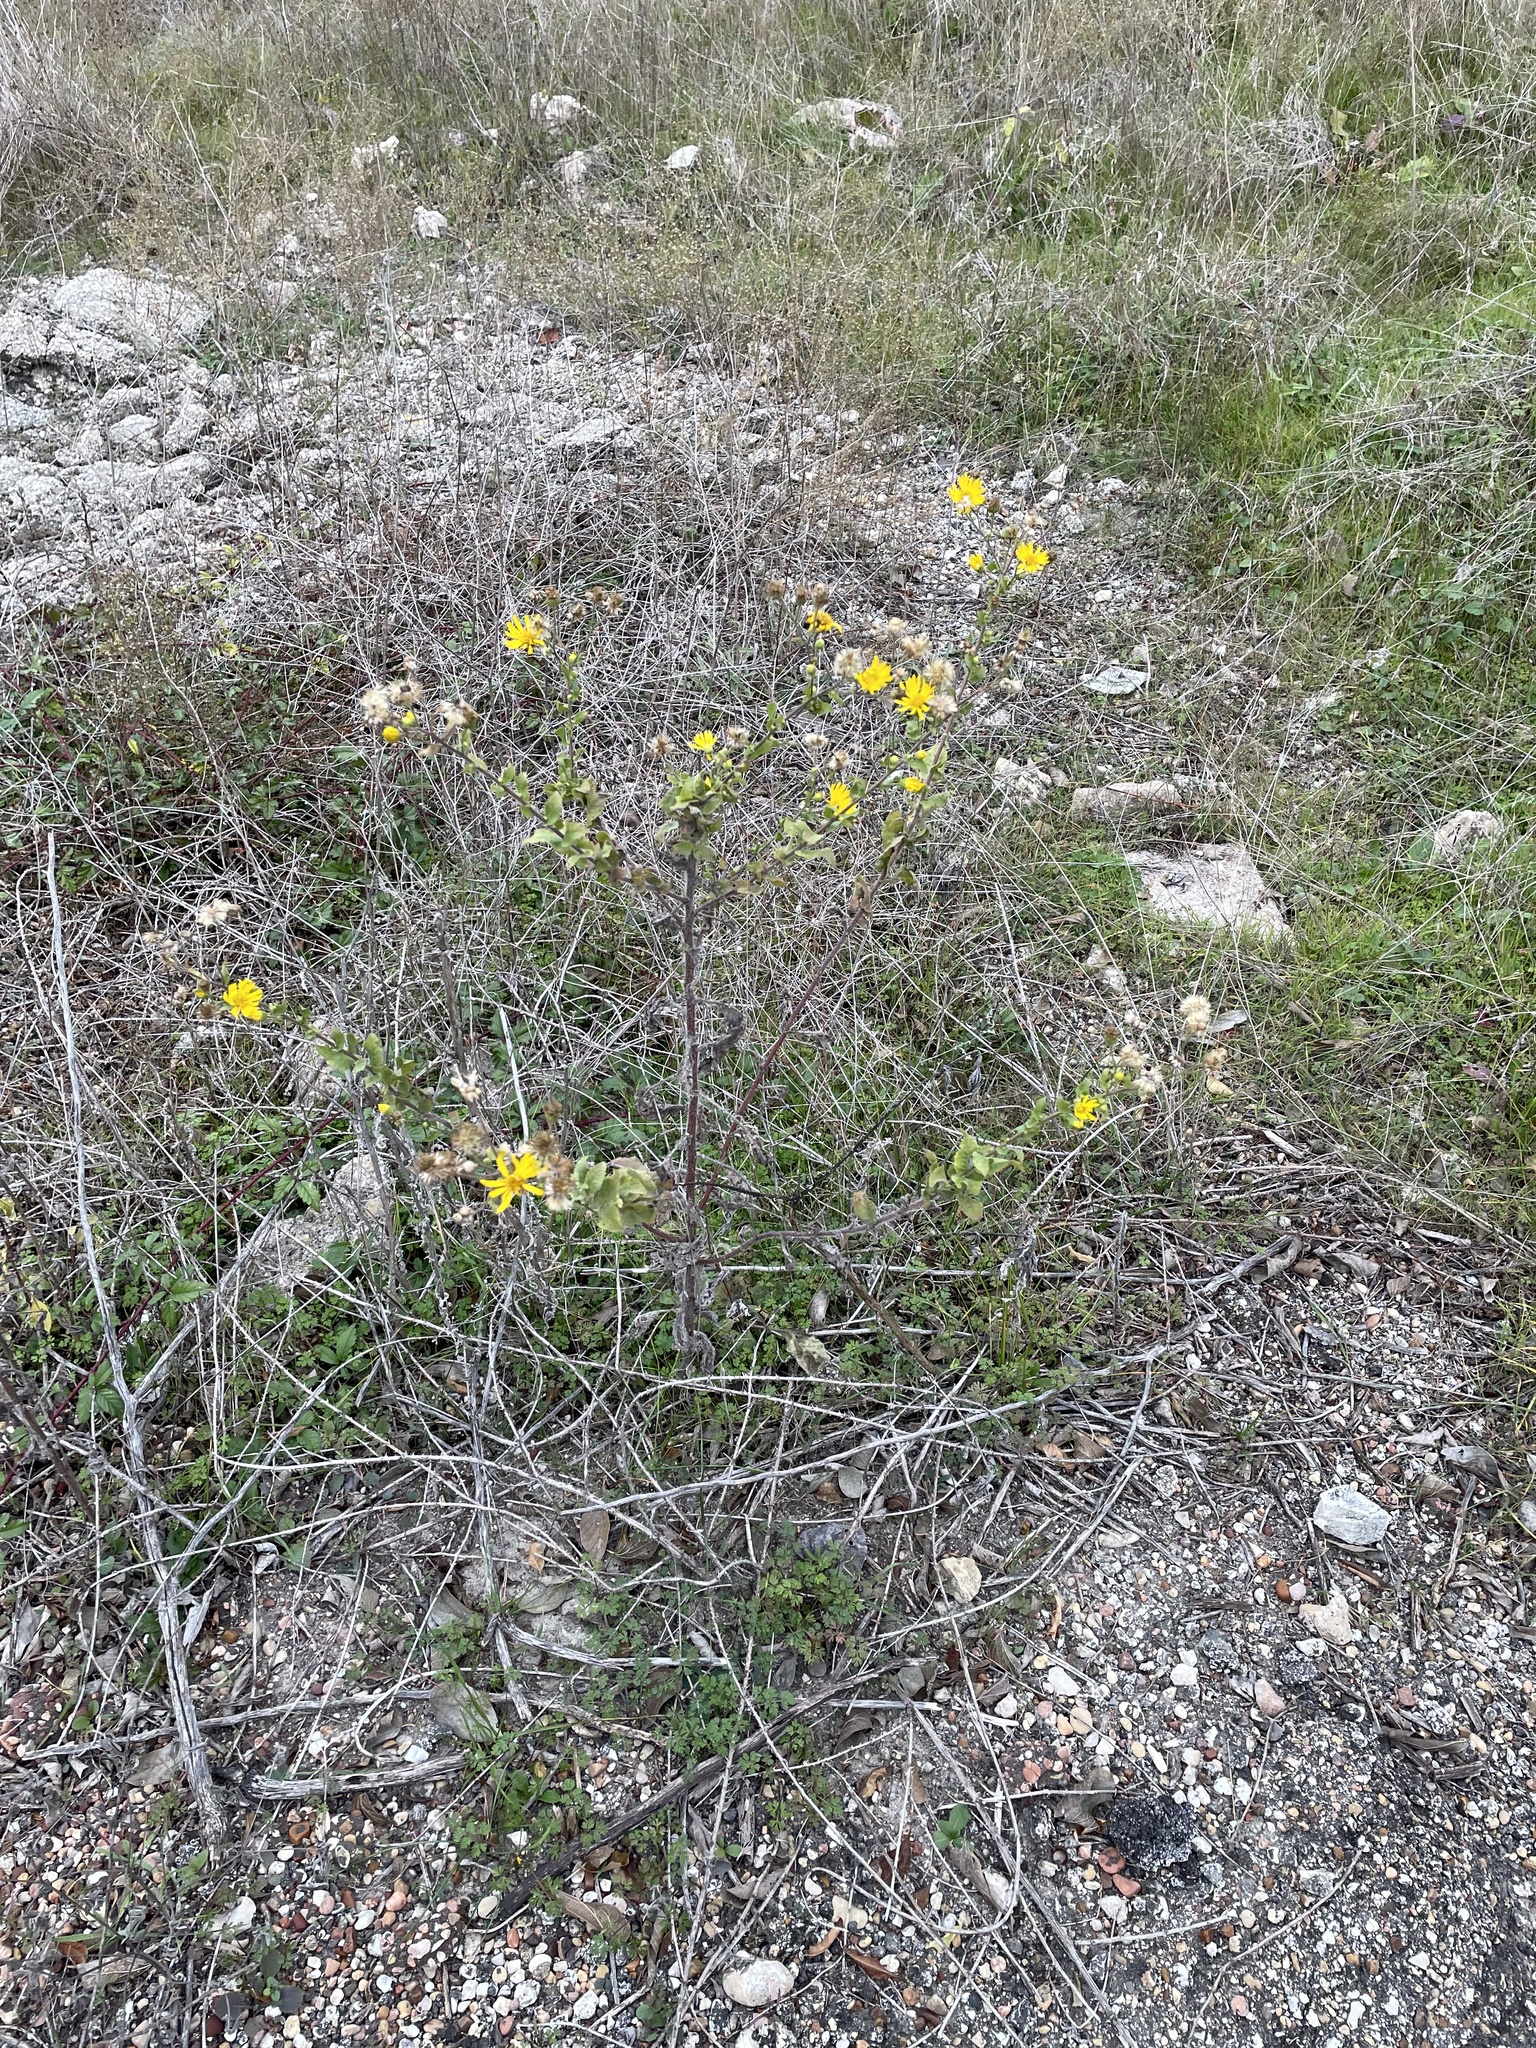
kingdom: Plantae
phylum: Tracheophyta
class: Magnoliopsida
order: Asterales
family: Asteraceae
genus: Heterotheca
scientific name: Heterotheca subaxillaris
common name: Camphorweed
